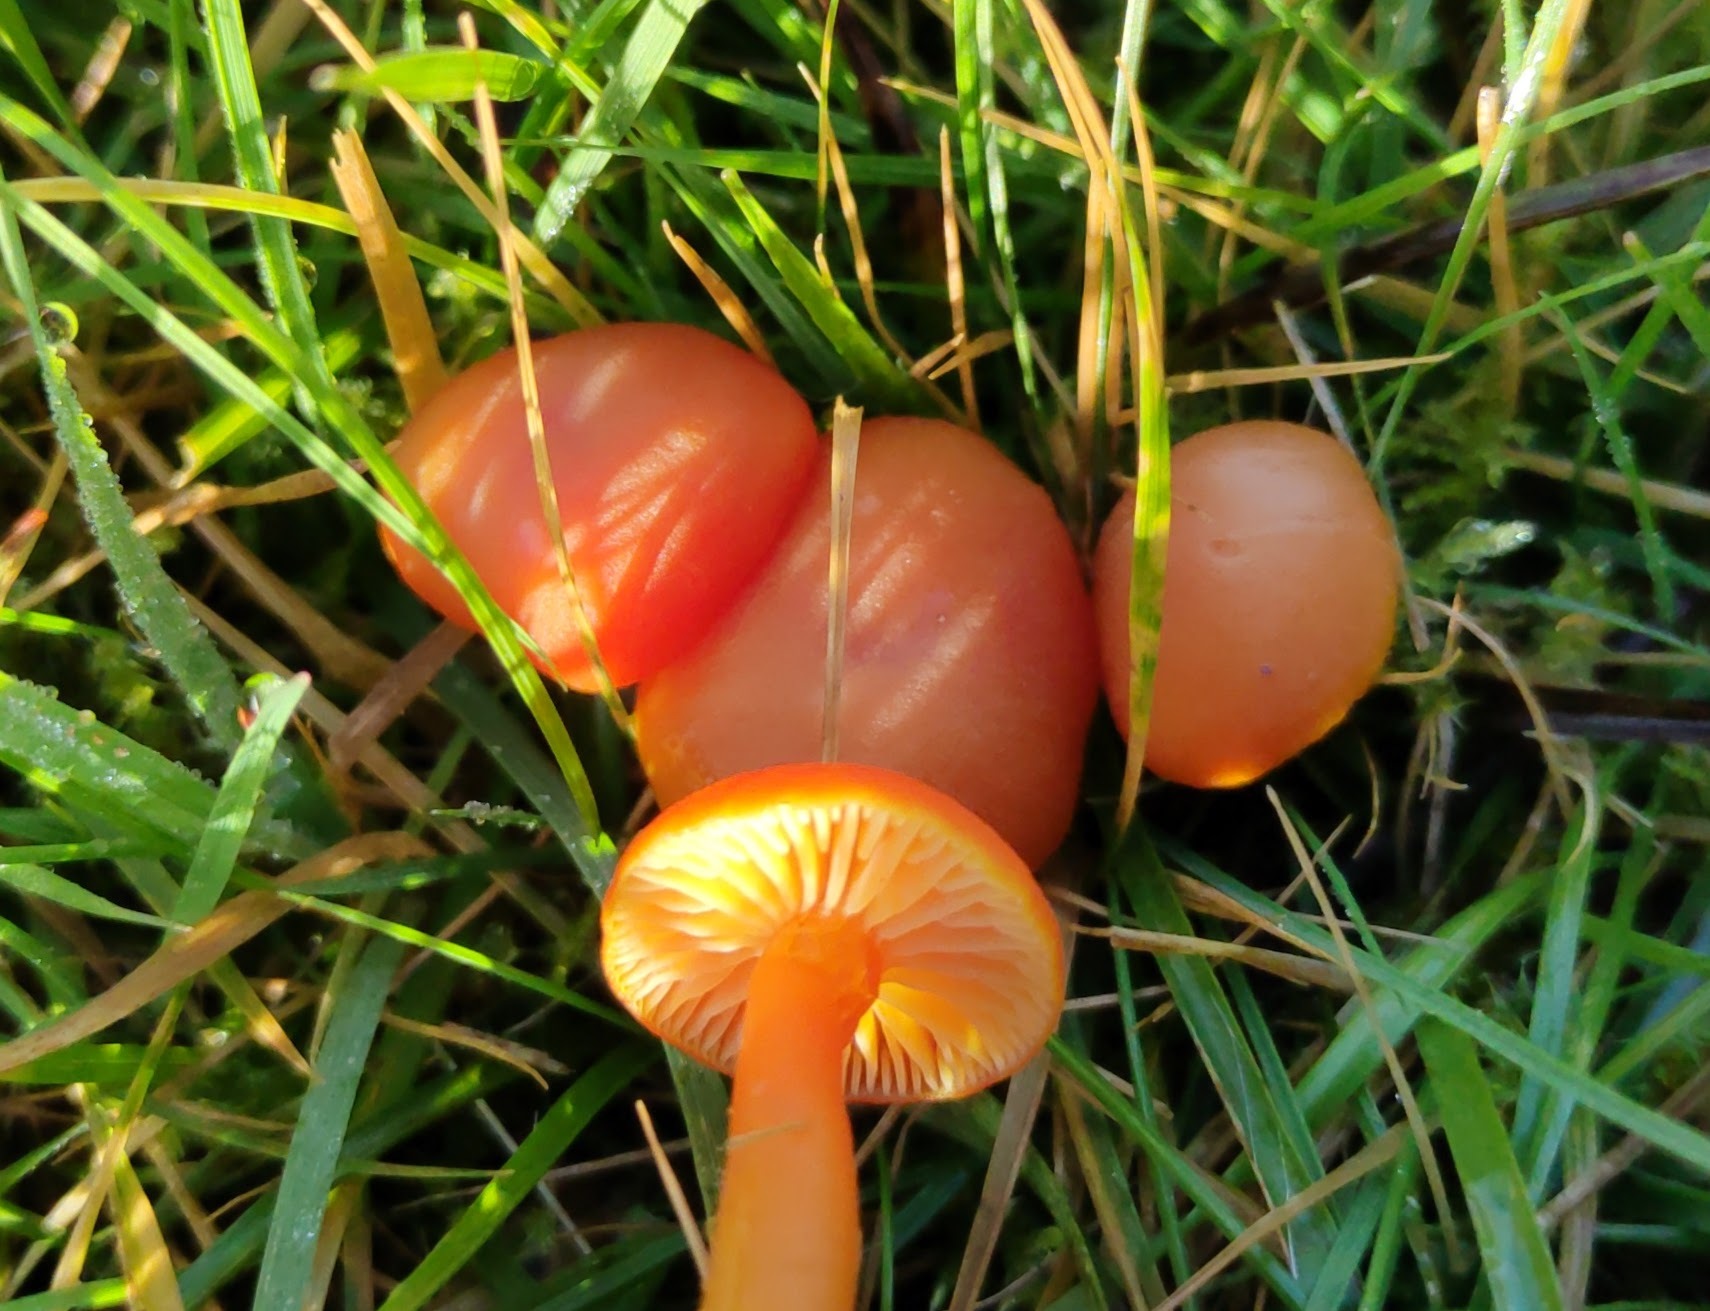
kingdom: Fungi
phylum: Basidiomycota
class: Agaricomycetes
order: Agaricales
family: Hygrophoraceae
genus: Hygrocybe
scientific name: Hygrocybe reidii
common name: Honey waxcap
